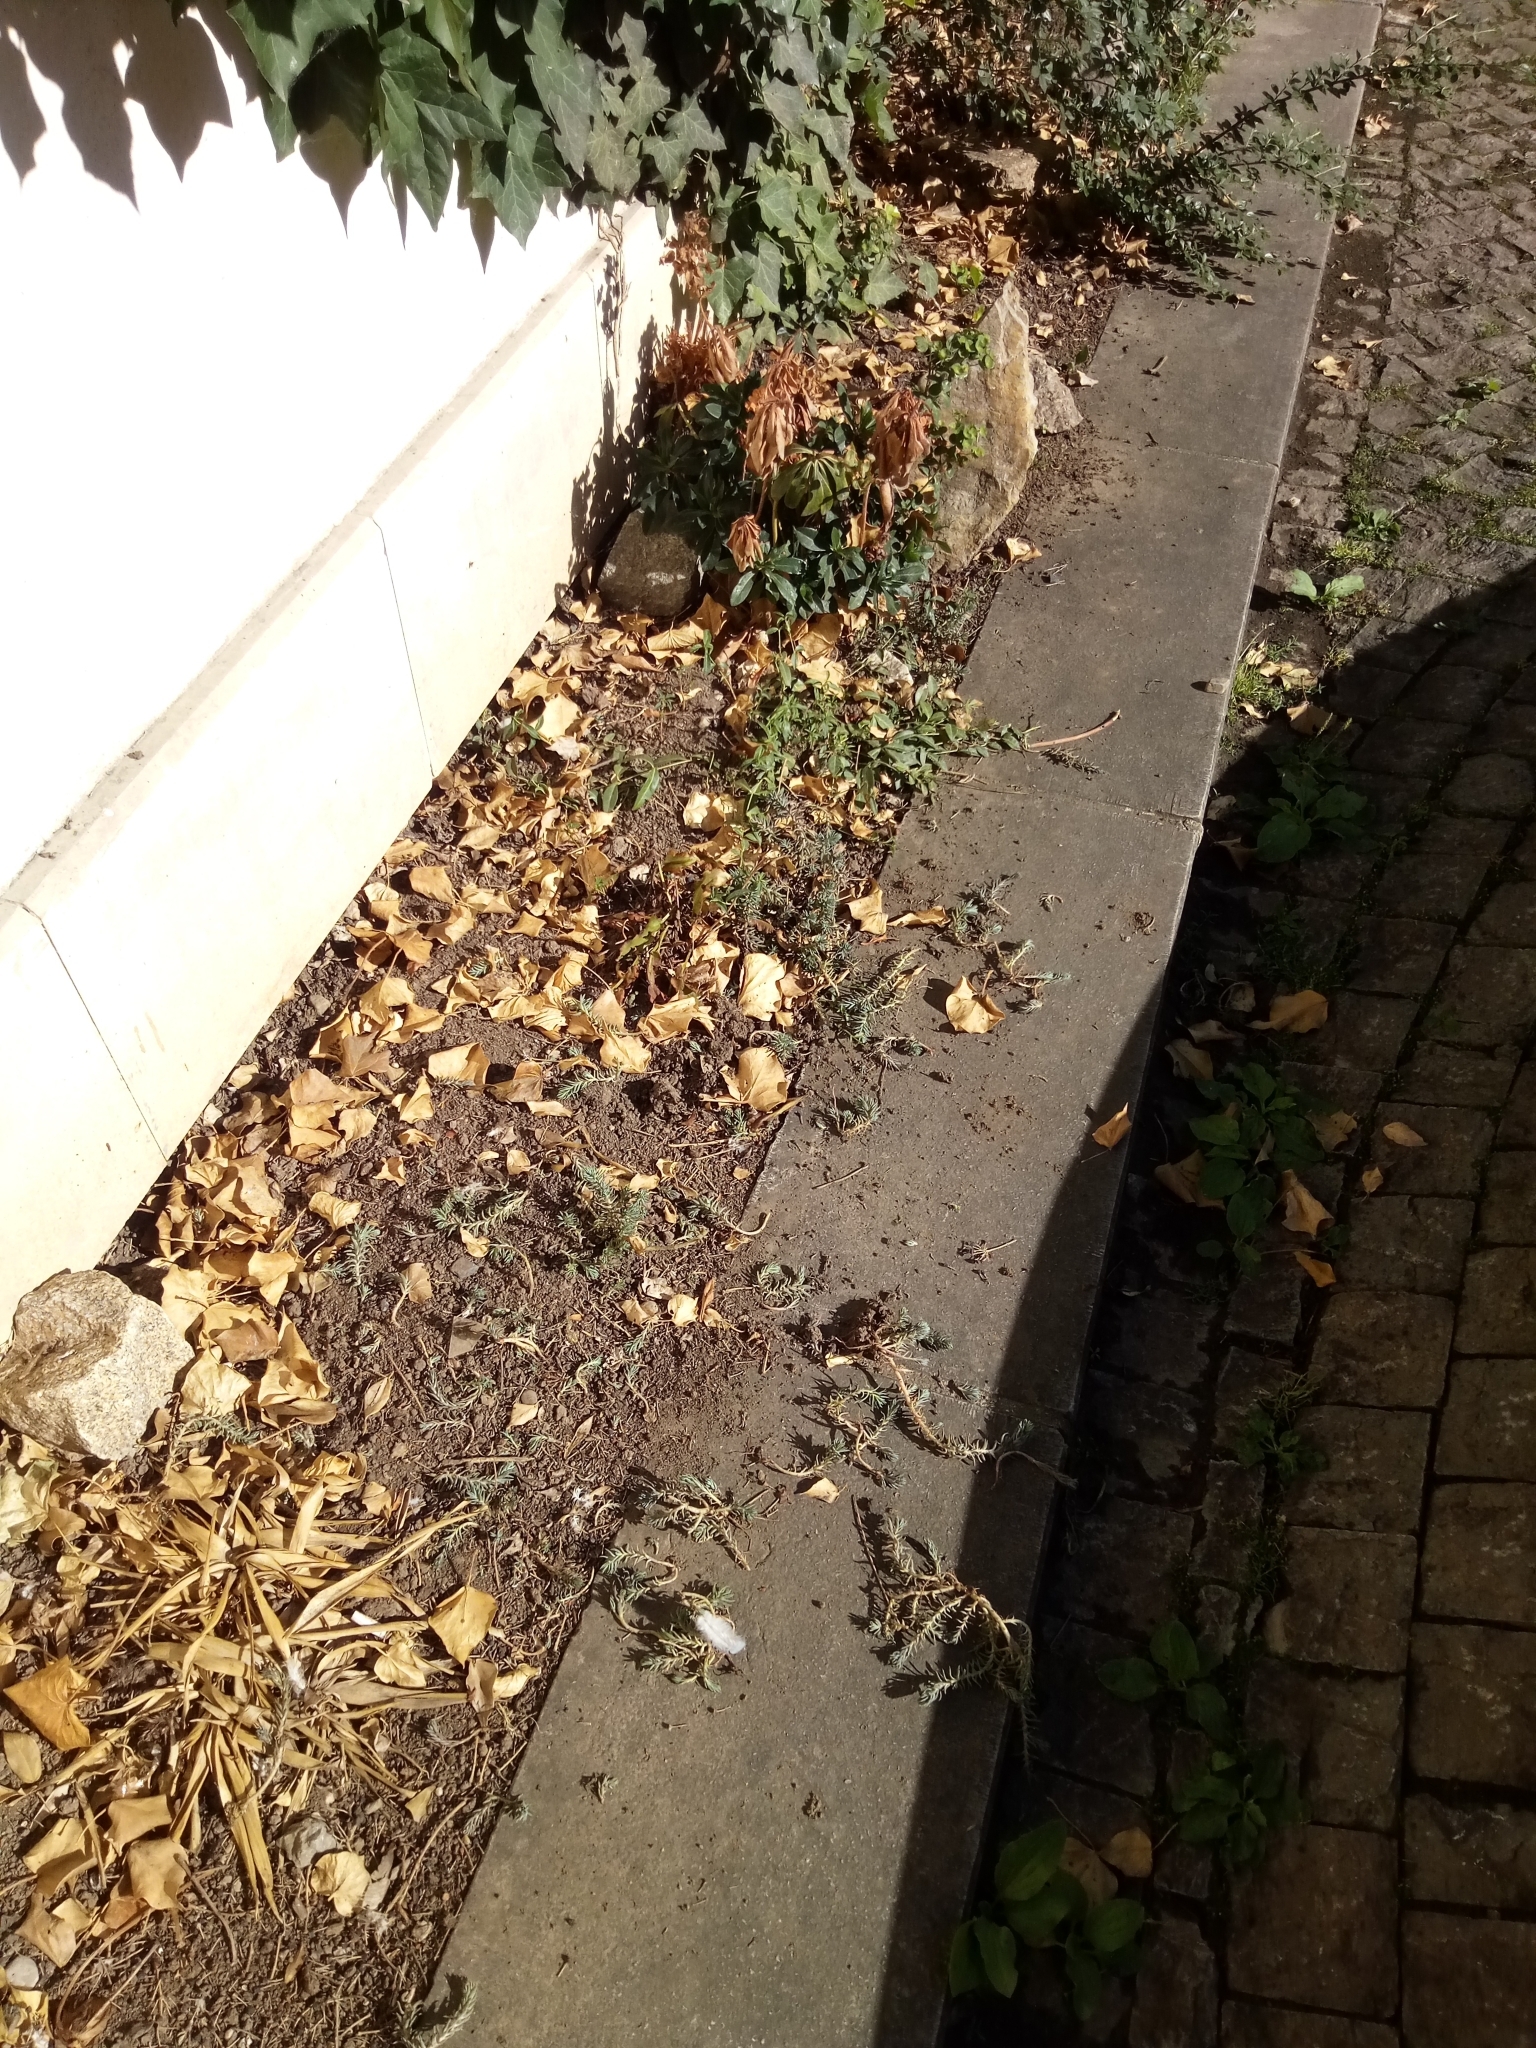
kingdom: Plantae
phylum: Tracheophyta
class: Polypodiopsida
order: Polypodiales
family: Aspleniaceae
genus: Asplenium
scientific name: Asplenium scolopendrium
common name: Hart's-tongue fern
